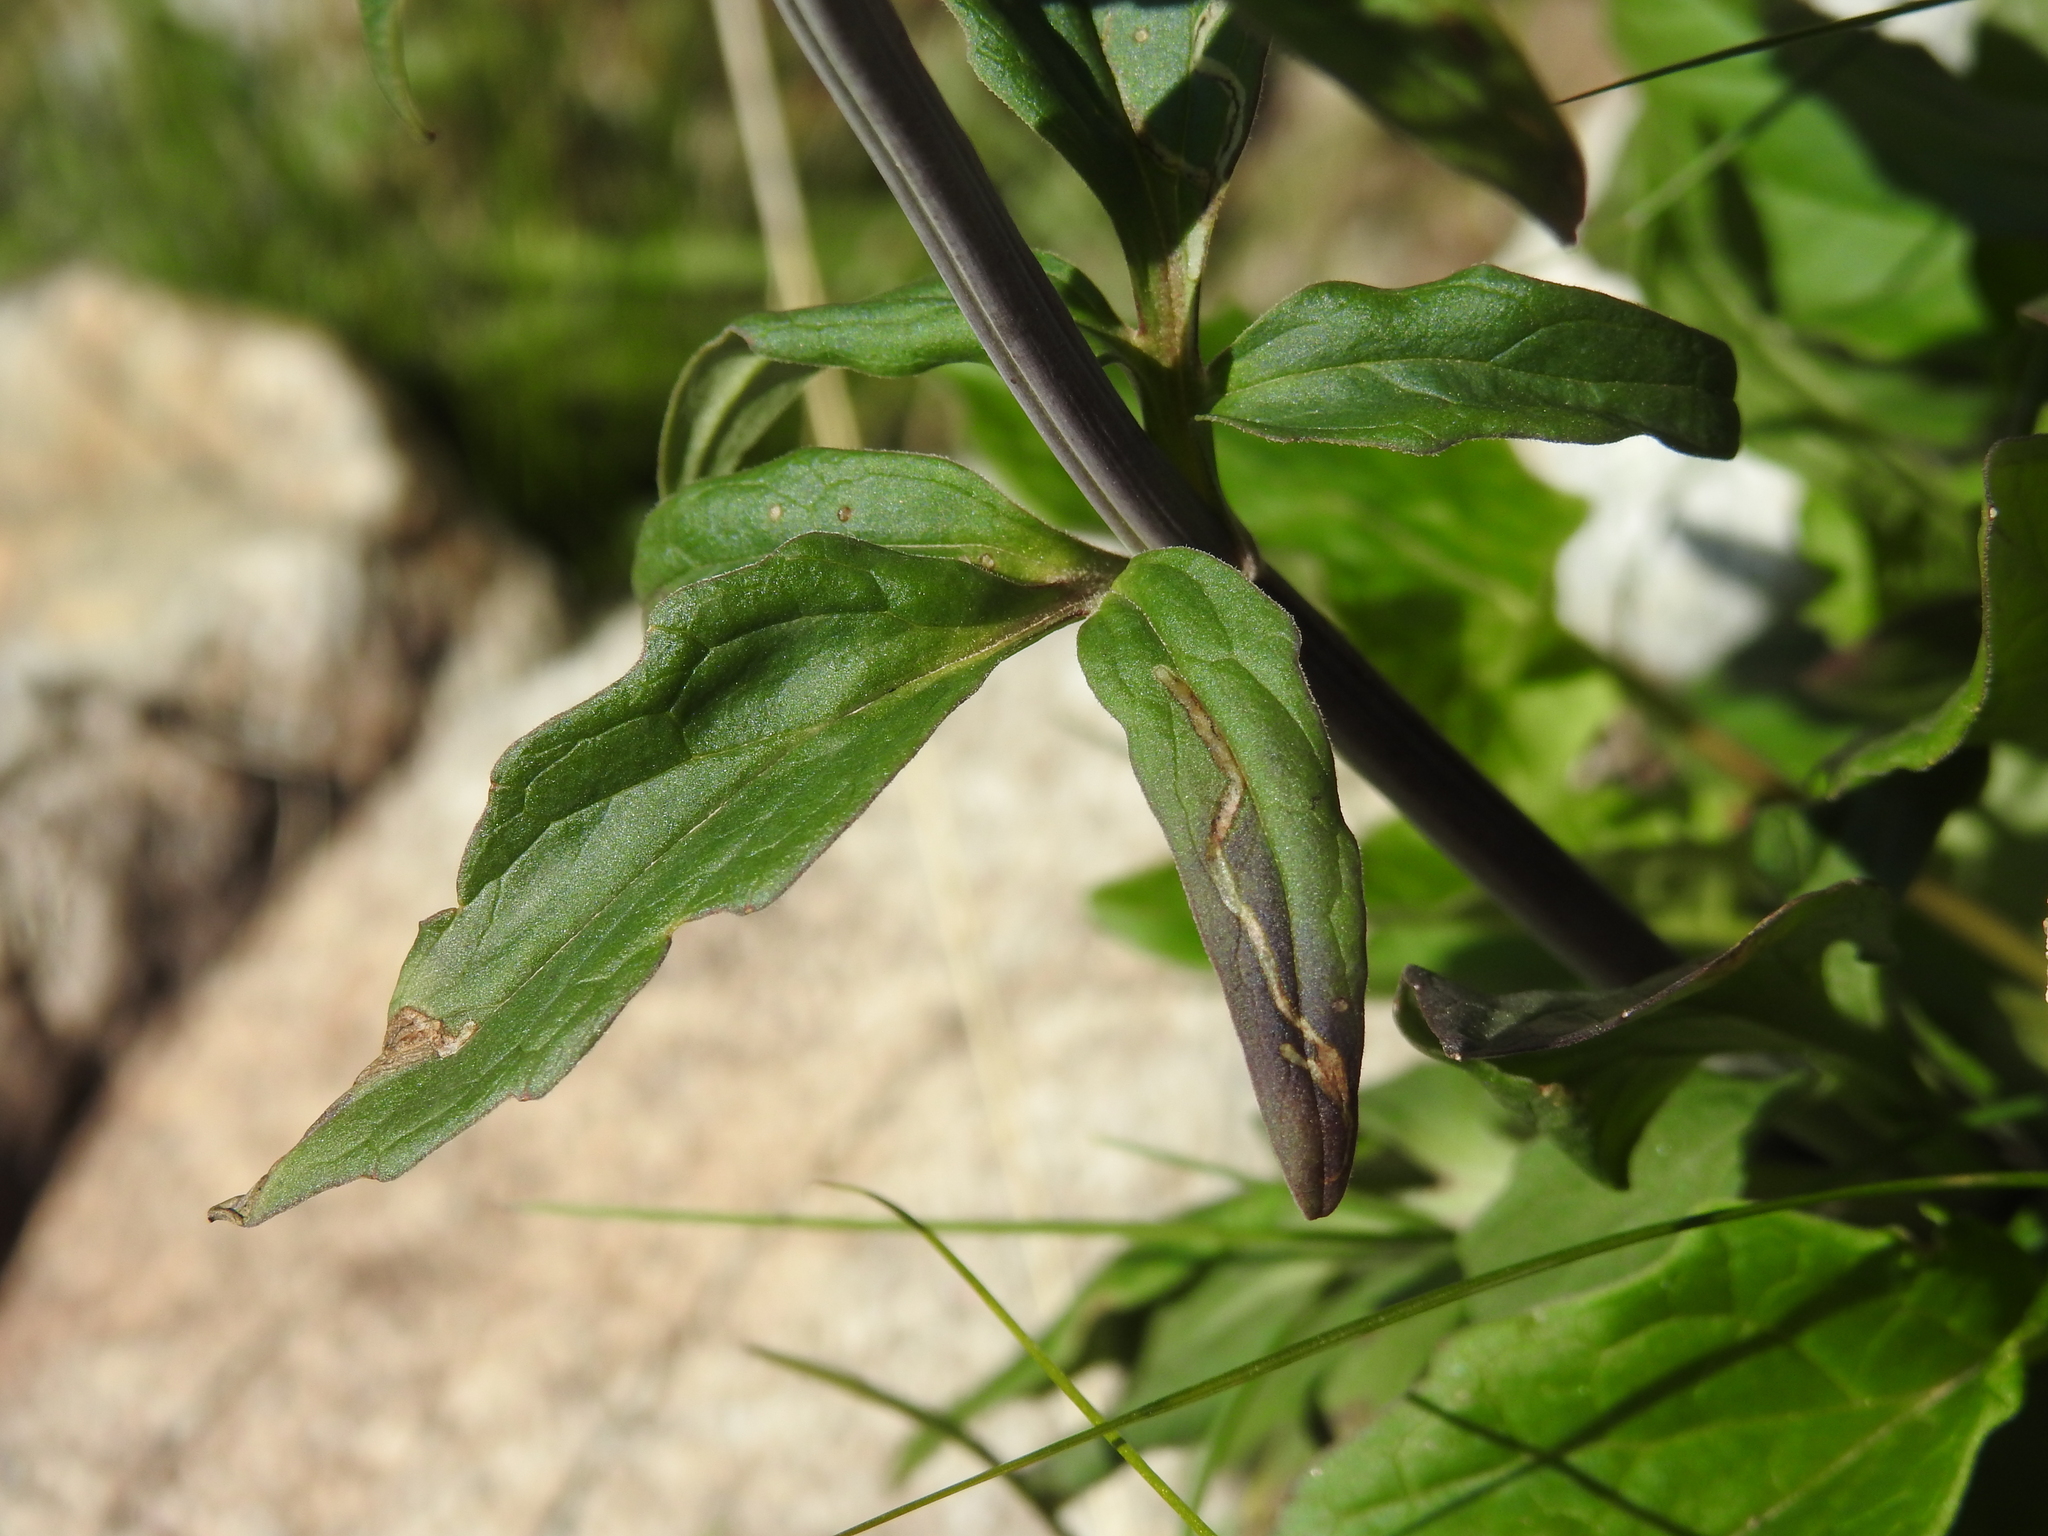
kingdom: Plantae
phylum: Tracheophyta
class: Magnoliopsida
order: Dipsacales
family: Caprifoliaceae
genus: Valeriana
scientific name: Valeriana tripteris
